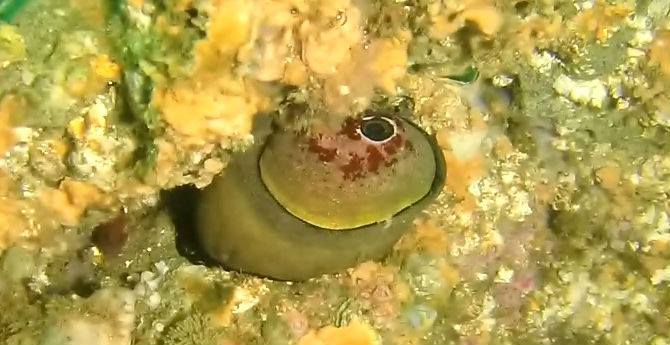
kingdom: Animalia
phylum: Mollusca
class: Gastropoda
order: Lepetellida
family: Fissurellidae
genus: Megathura
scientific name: Megathura crenulata
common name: Giant keyhole limpet
